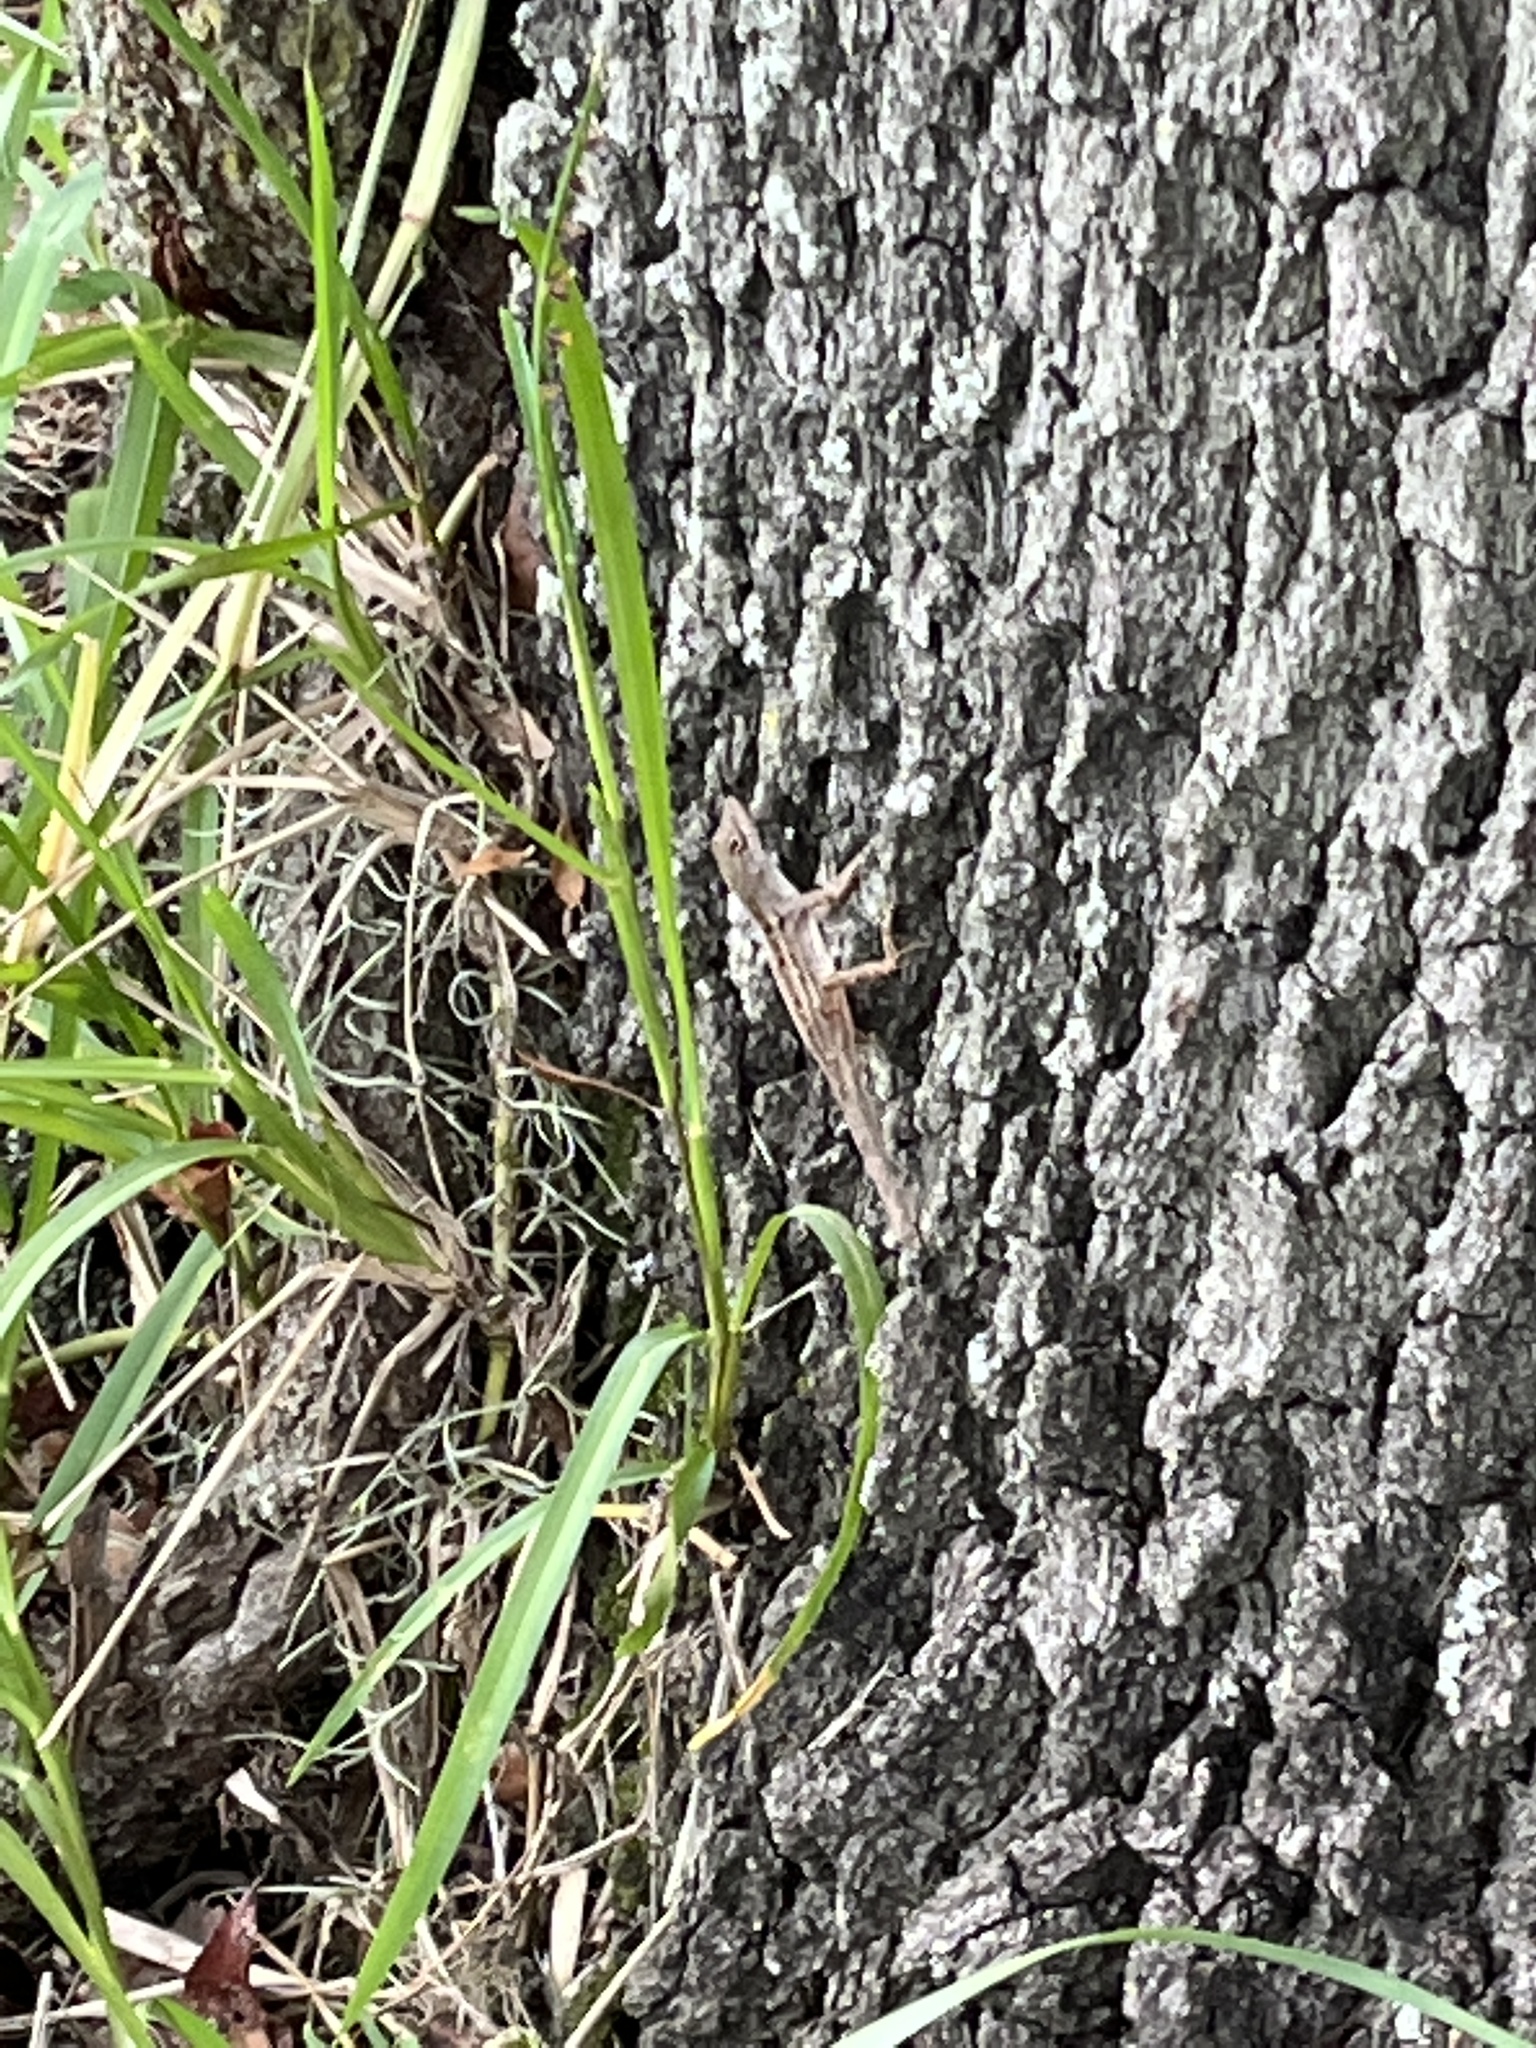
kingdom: Animalia
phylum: Chordata
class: Squamata
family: Dactyloidae
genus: Anolis
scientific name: Anolis sagrei
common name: Brown anole
